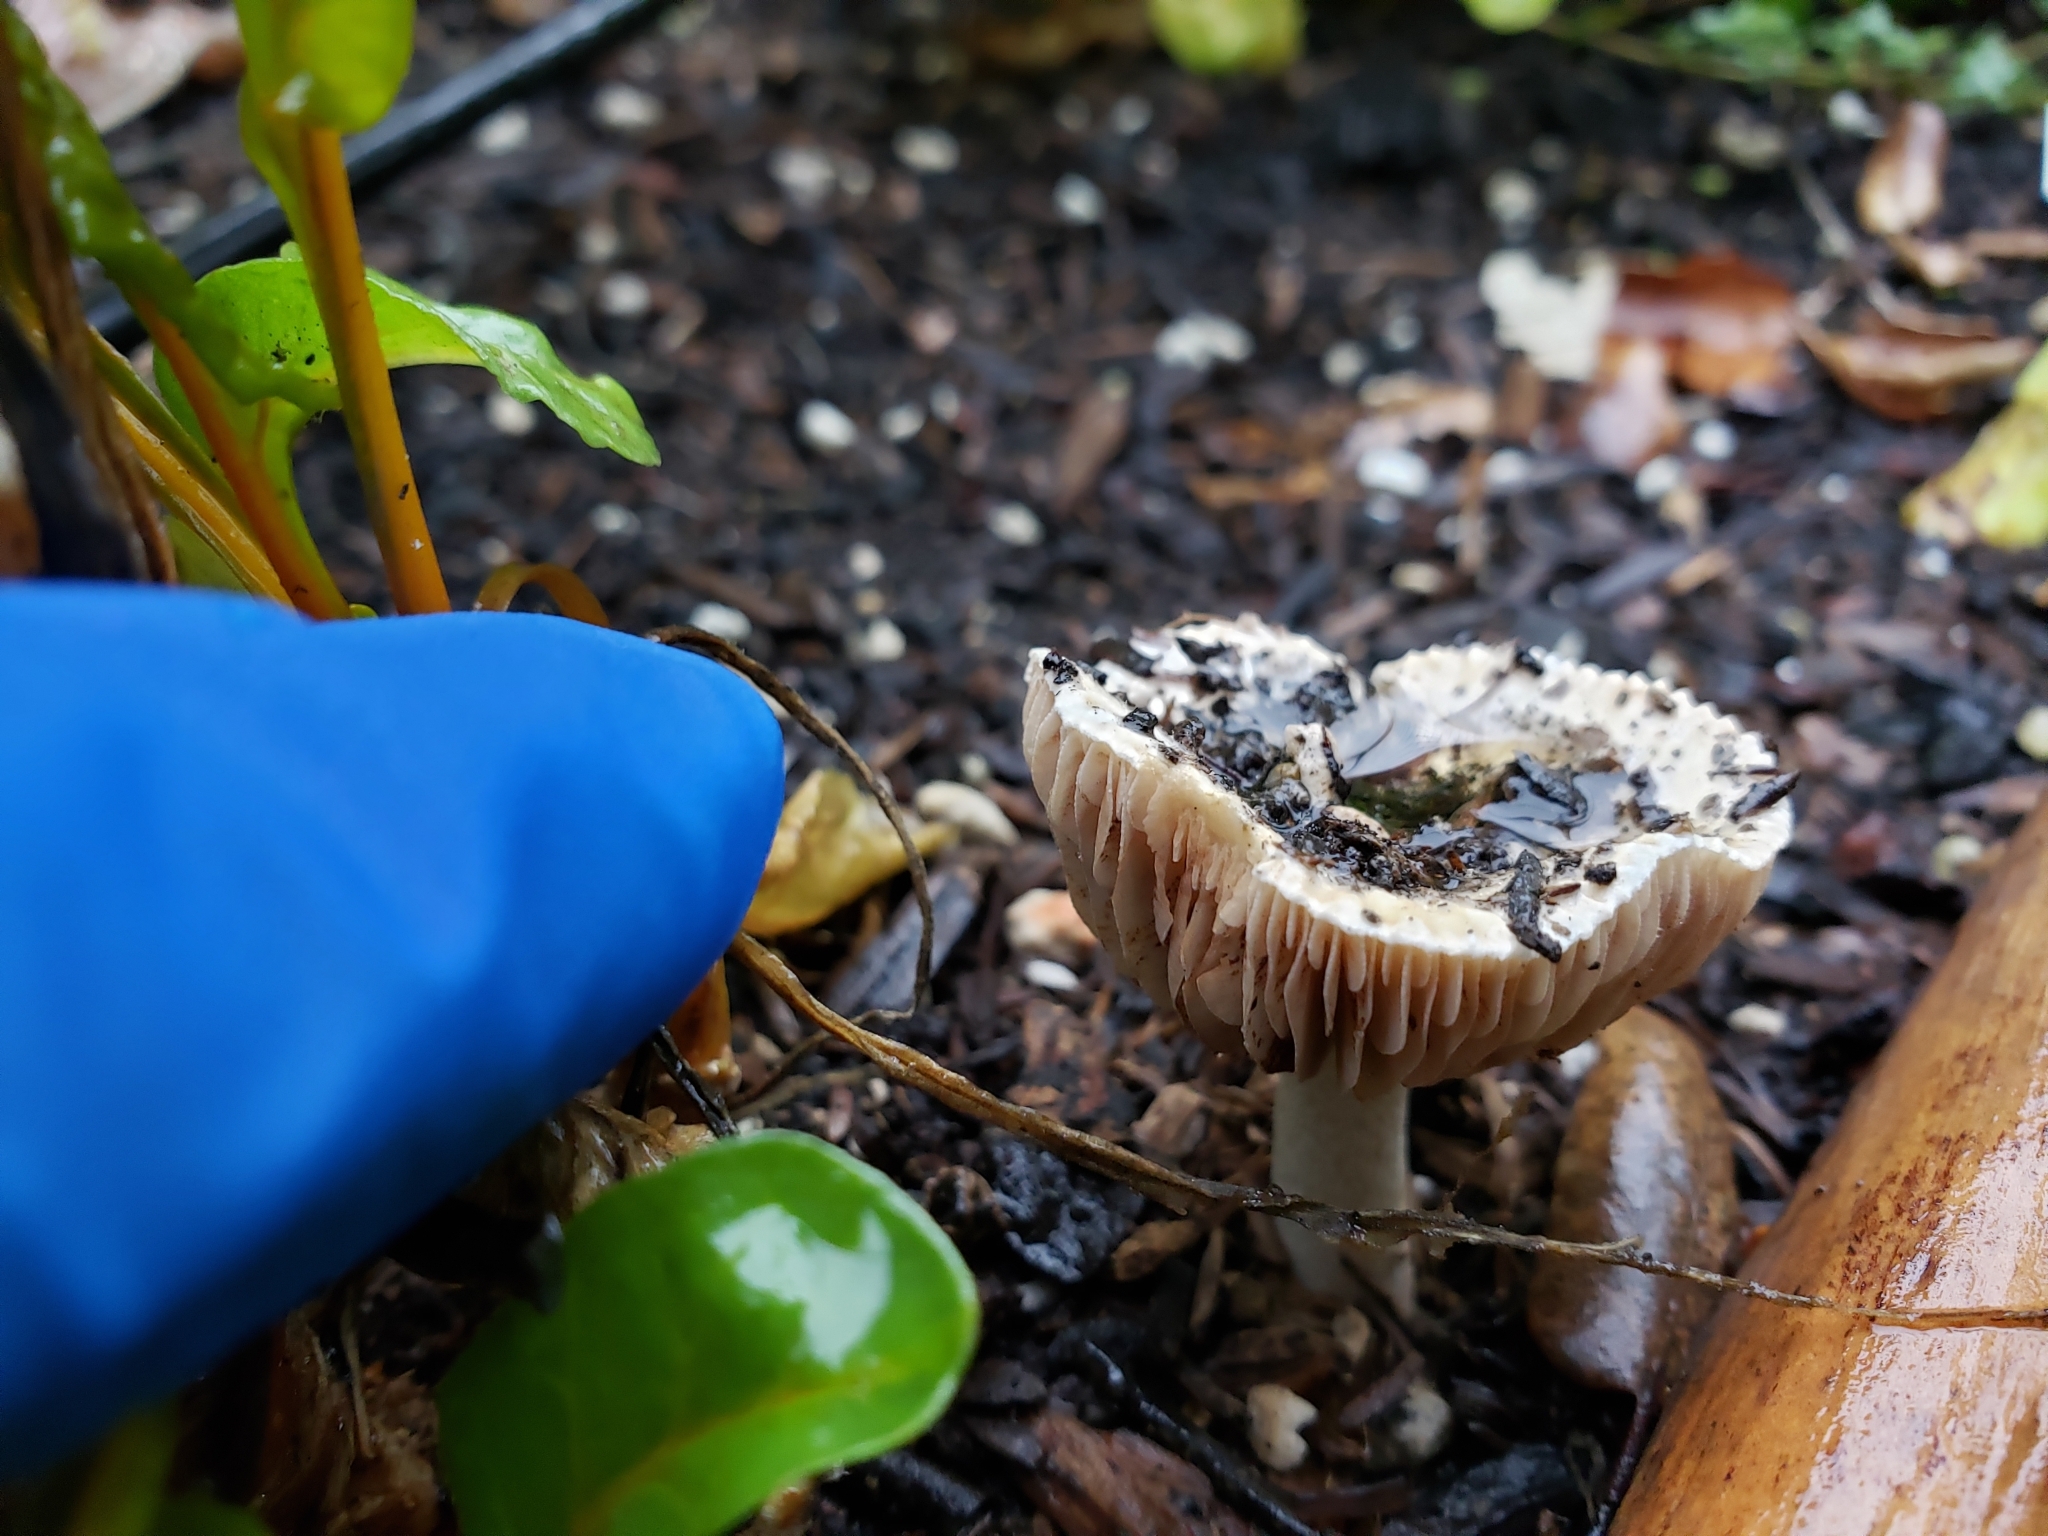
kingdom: Fungi
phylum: Basidiomycota
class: Agaricomycetes
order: Agaricales
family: Hymenogastraceae
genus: Hebeloma
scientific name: Hebeloma crustuliniforme
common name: Poison pie
